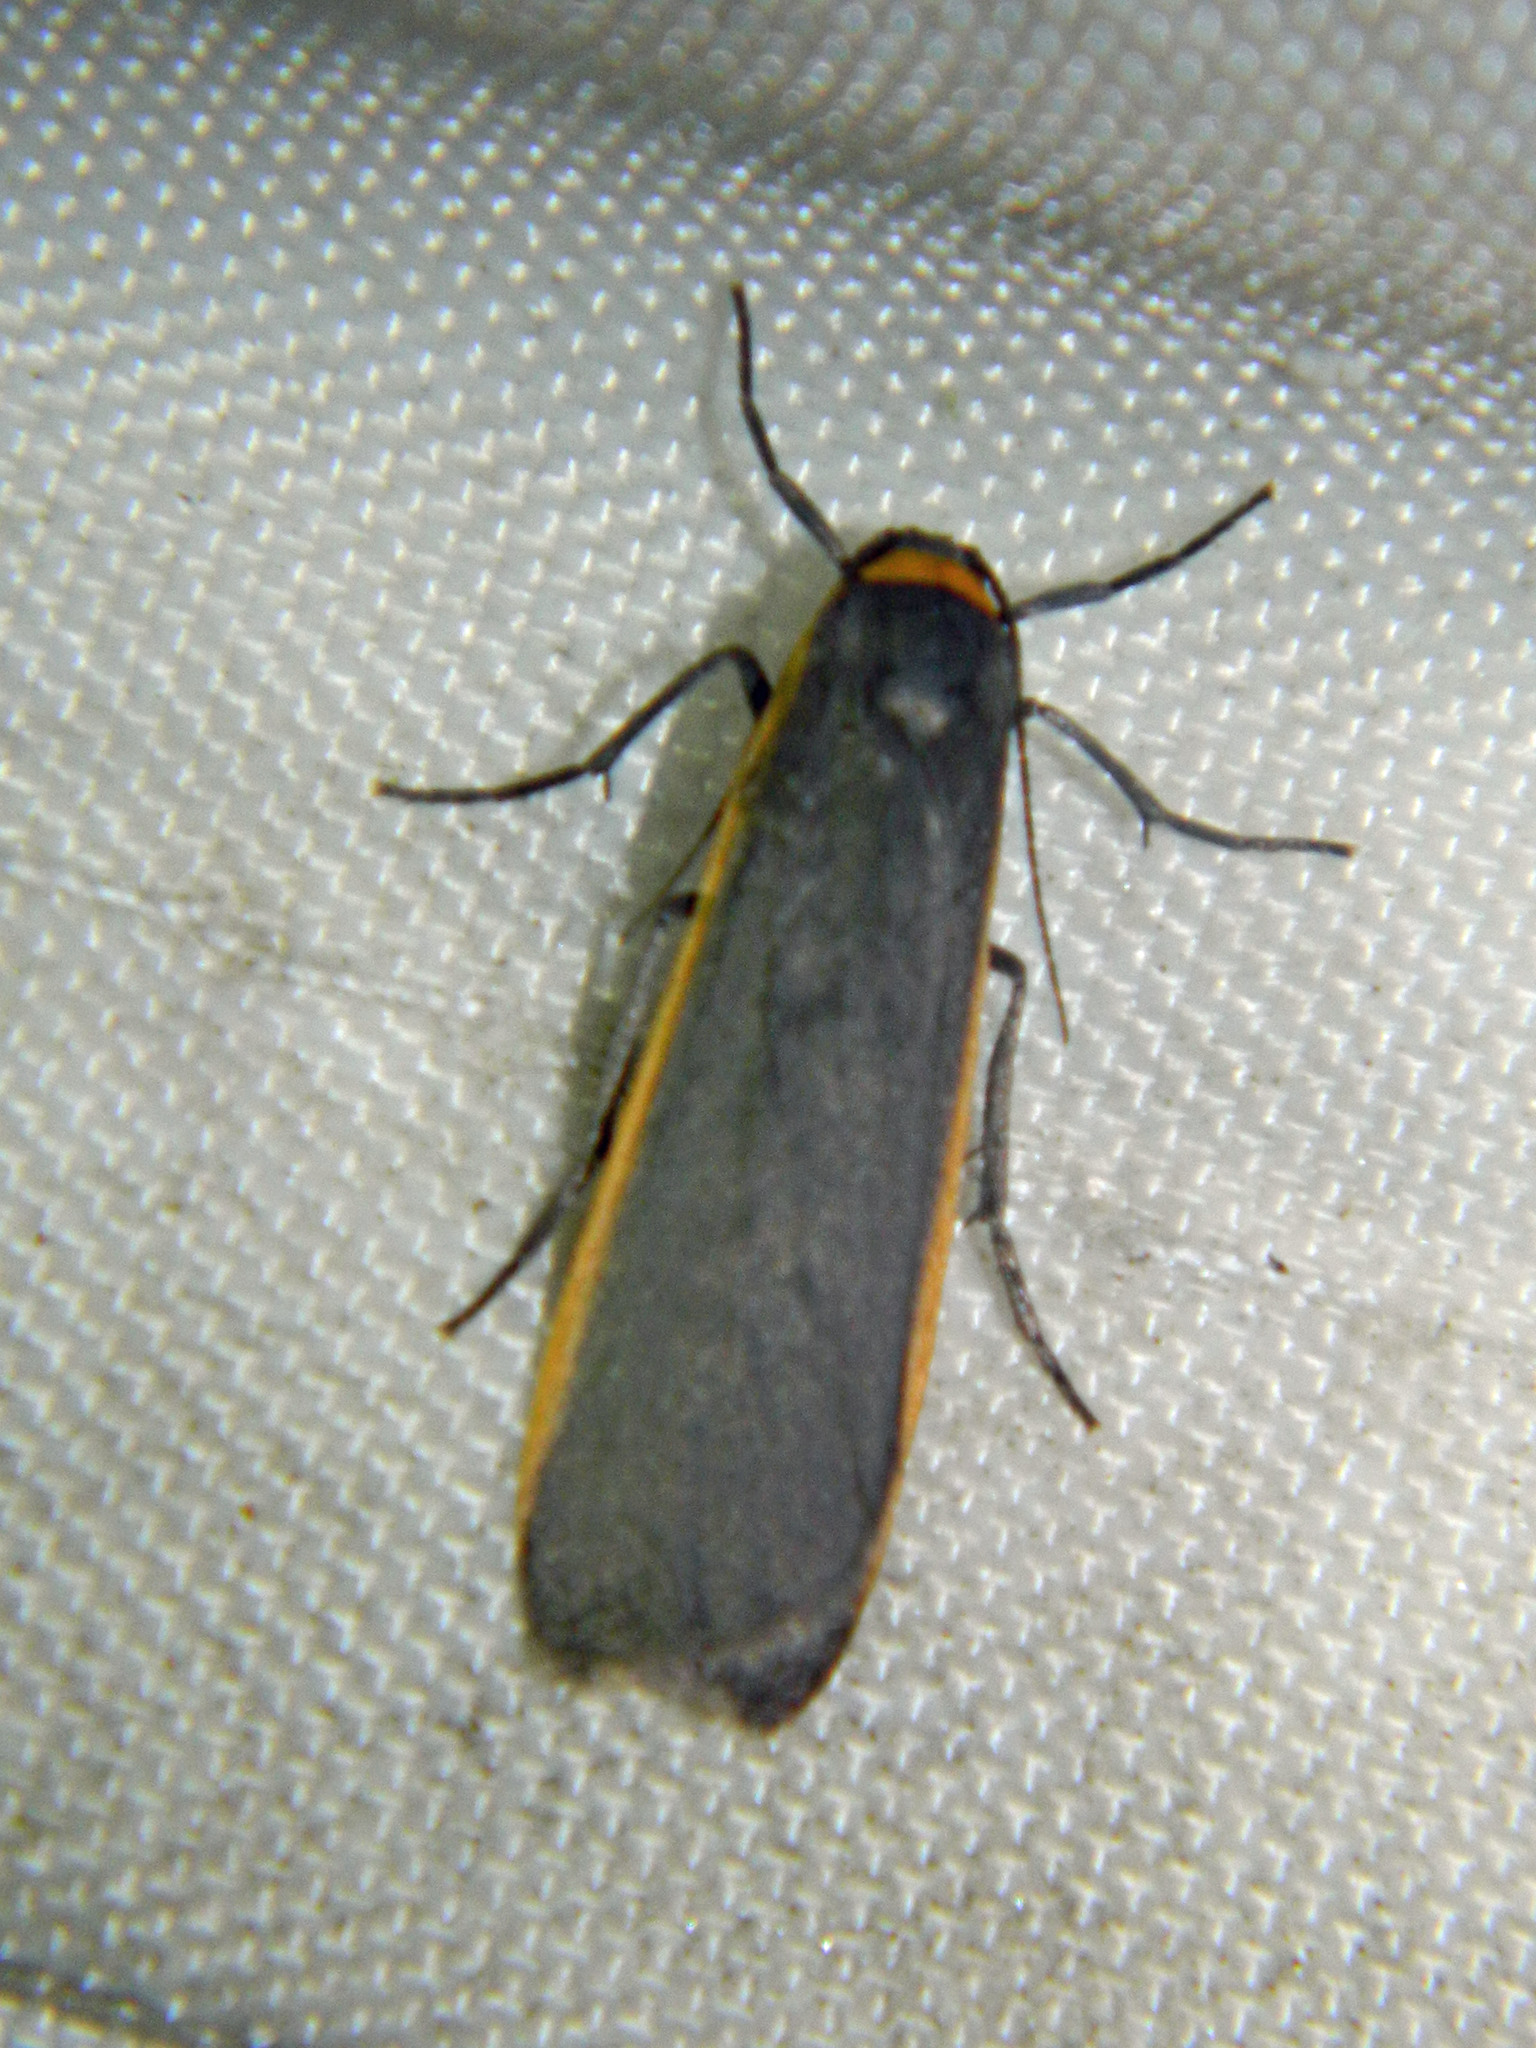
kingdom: Animalia
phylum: Arthropoda
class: Insecta
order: Lepidoptera
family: Erebidae
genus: Manulea
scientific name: Manulea bicolor
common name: Bicolored moth
